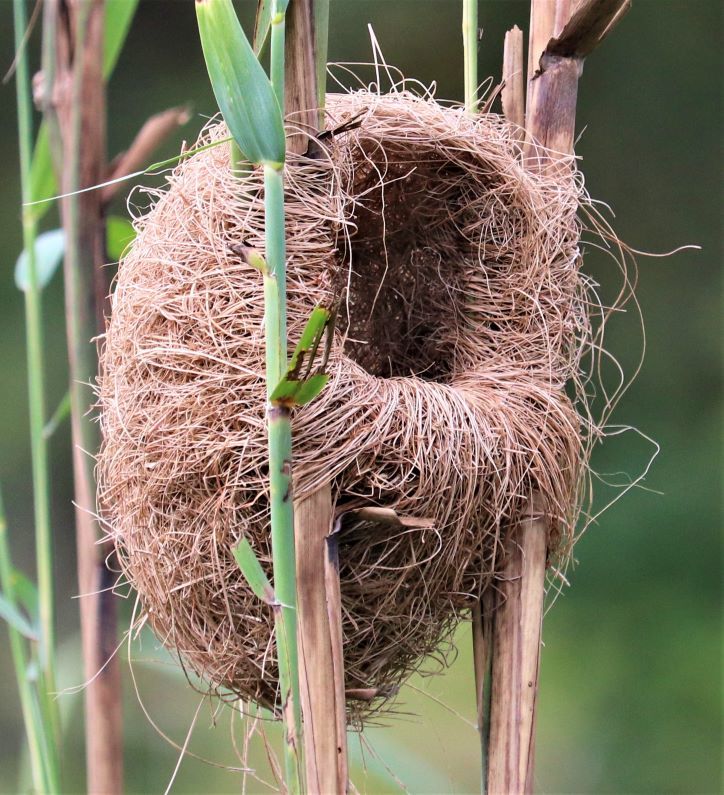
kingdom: Animalia
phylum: Chordata
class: Aves
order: Passeriformes
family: Ploceidae
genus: Amblyospiza
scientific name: Amblyospiza albifrons
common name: Thick-billed weaver
